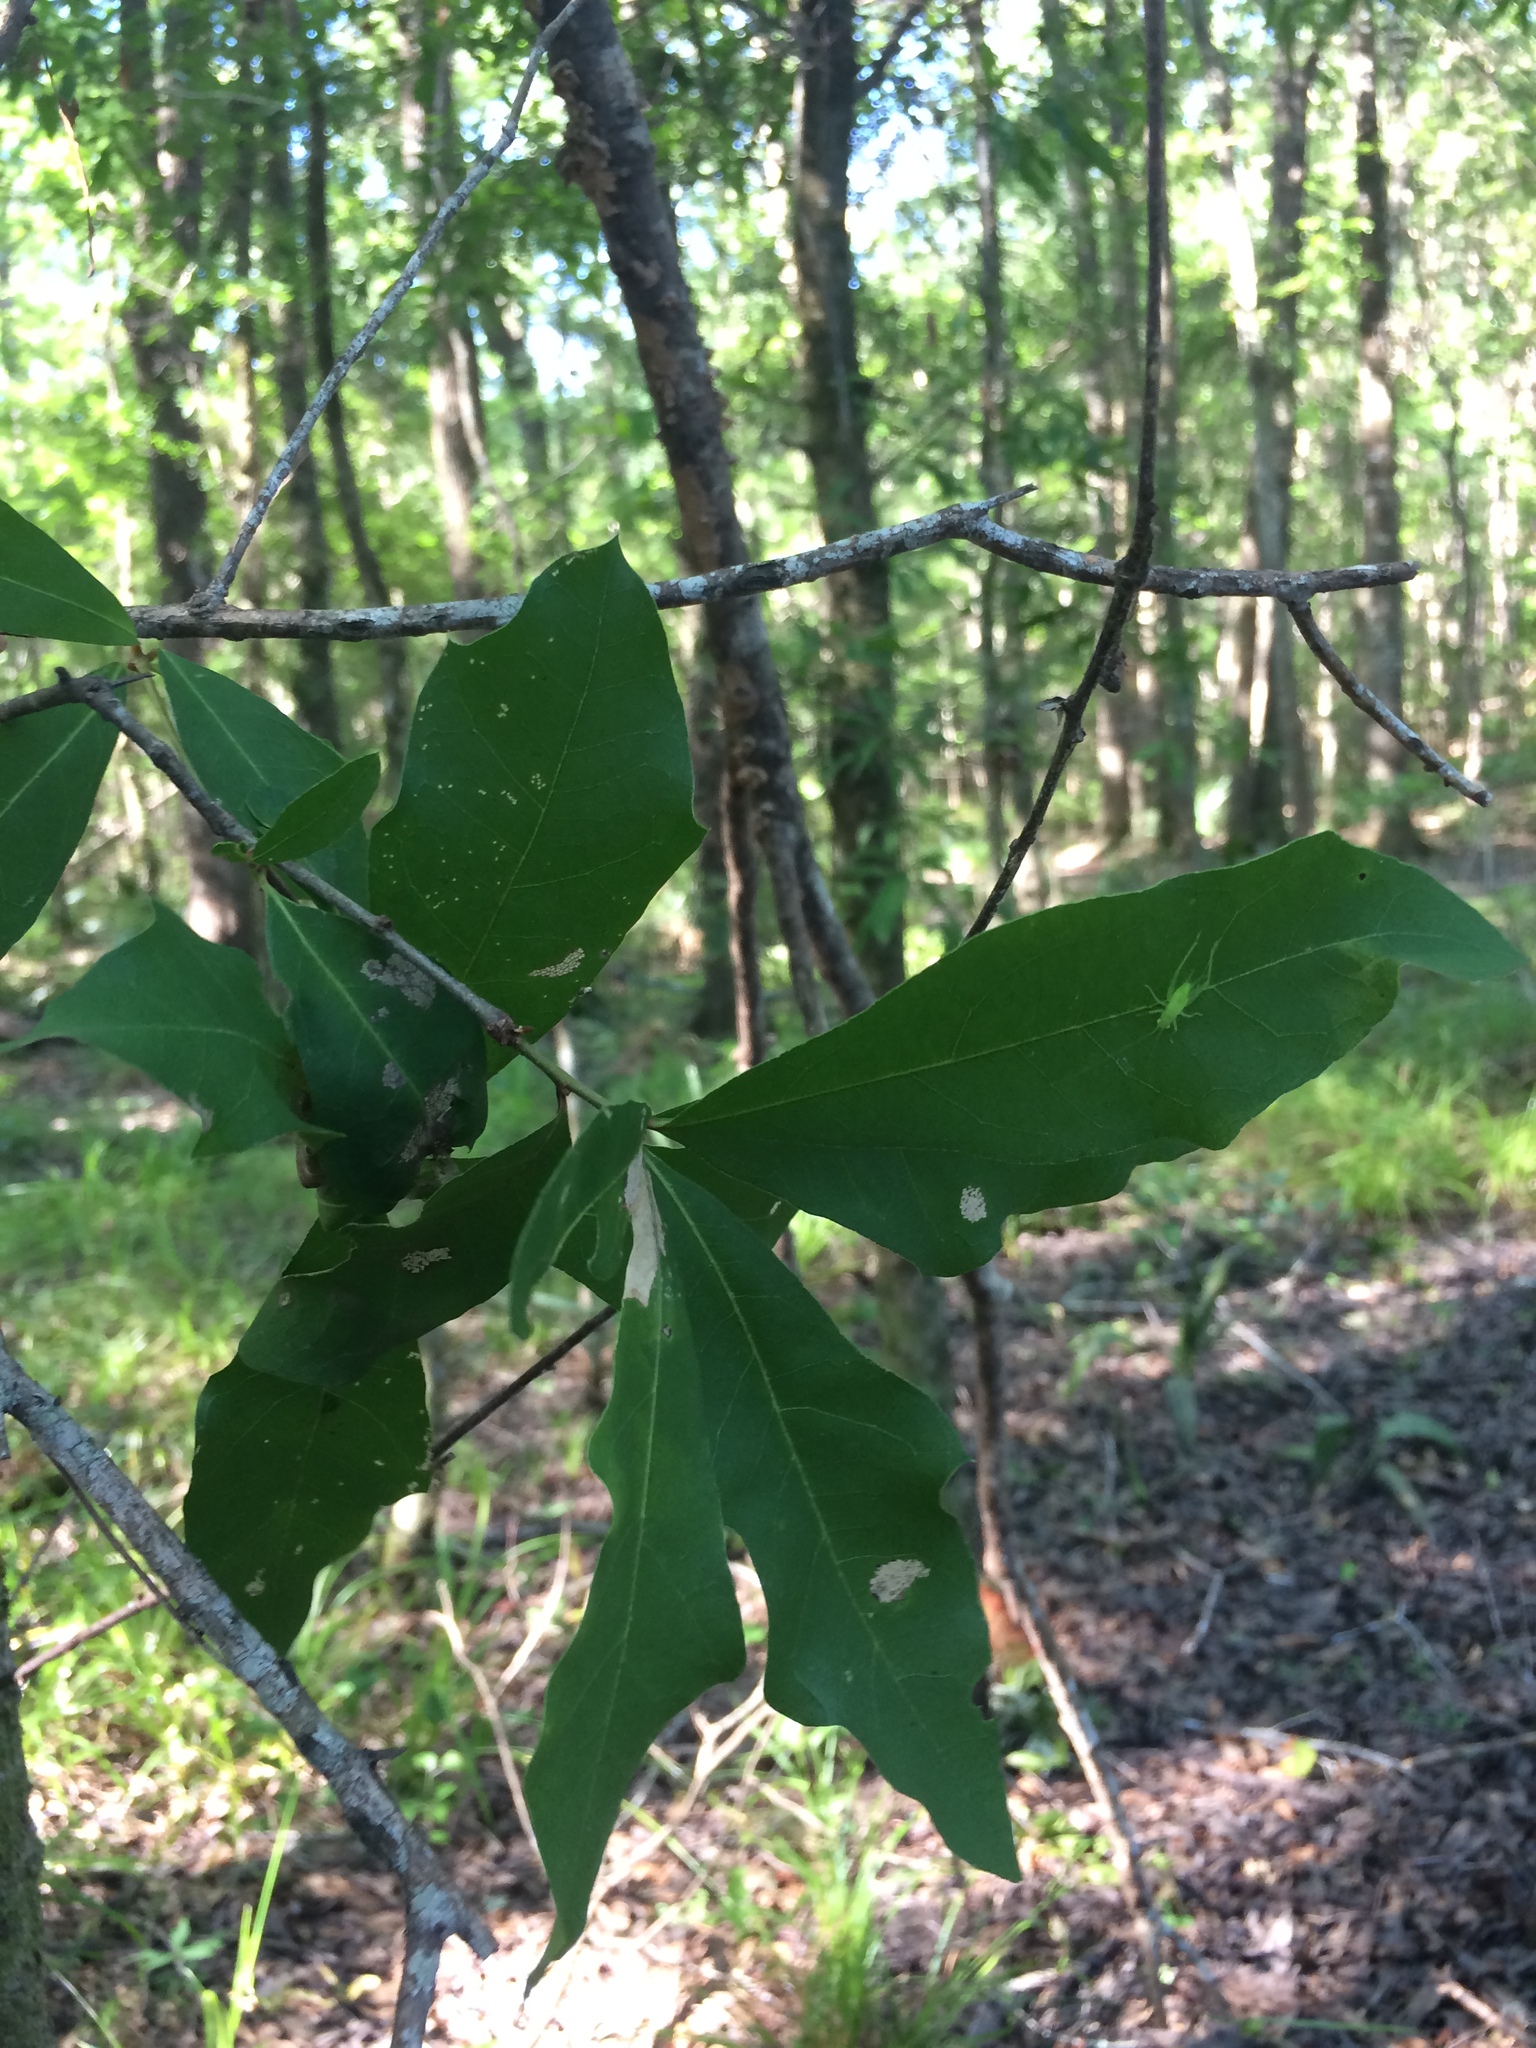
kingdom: Plantae
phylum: Tracheophyta
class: Magnoliopsida
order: Fagales
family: Fagaceae
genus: Quercus
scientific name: Quercus nigra
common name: Water oak
